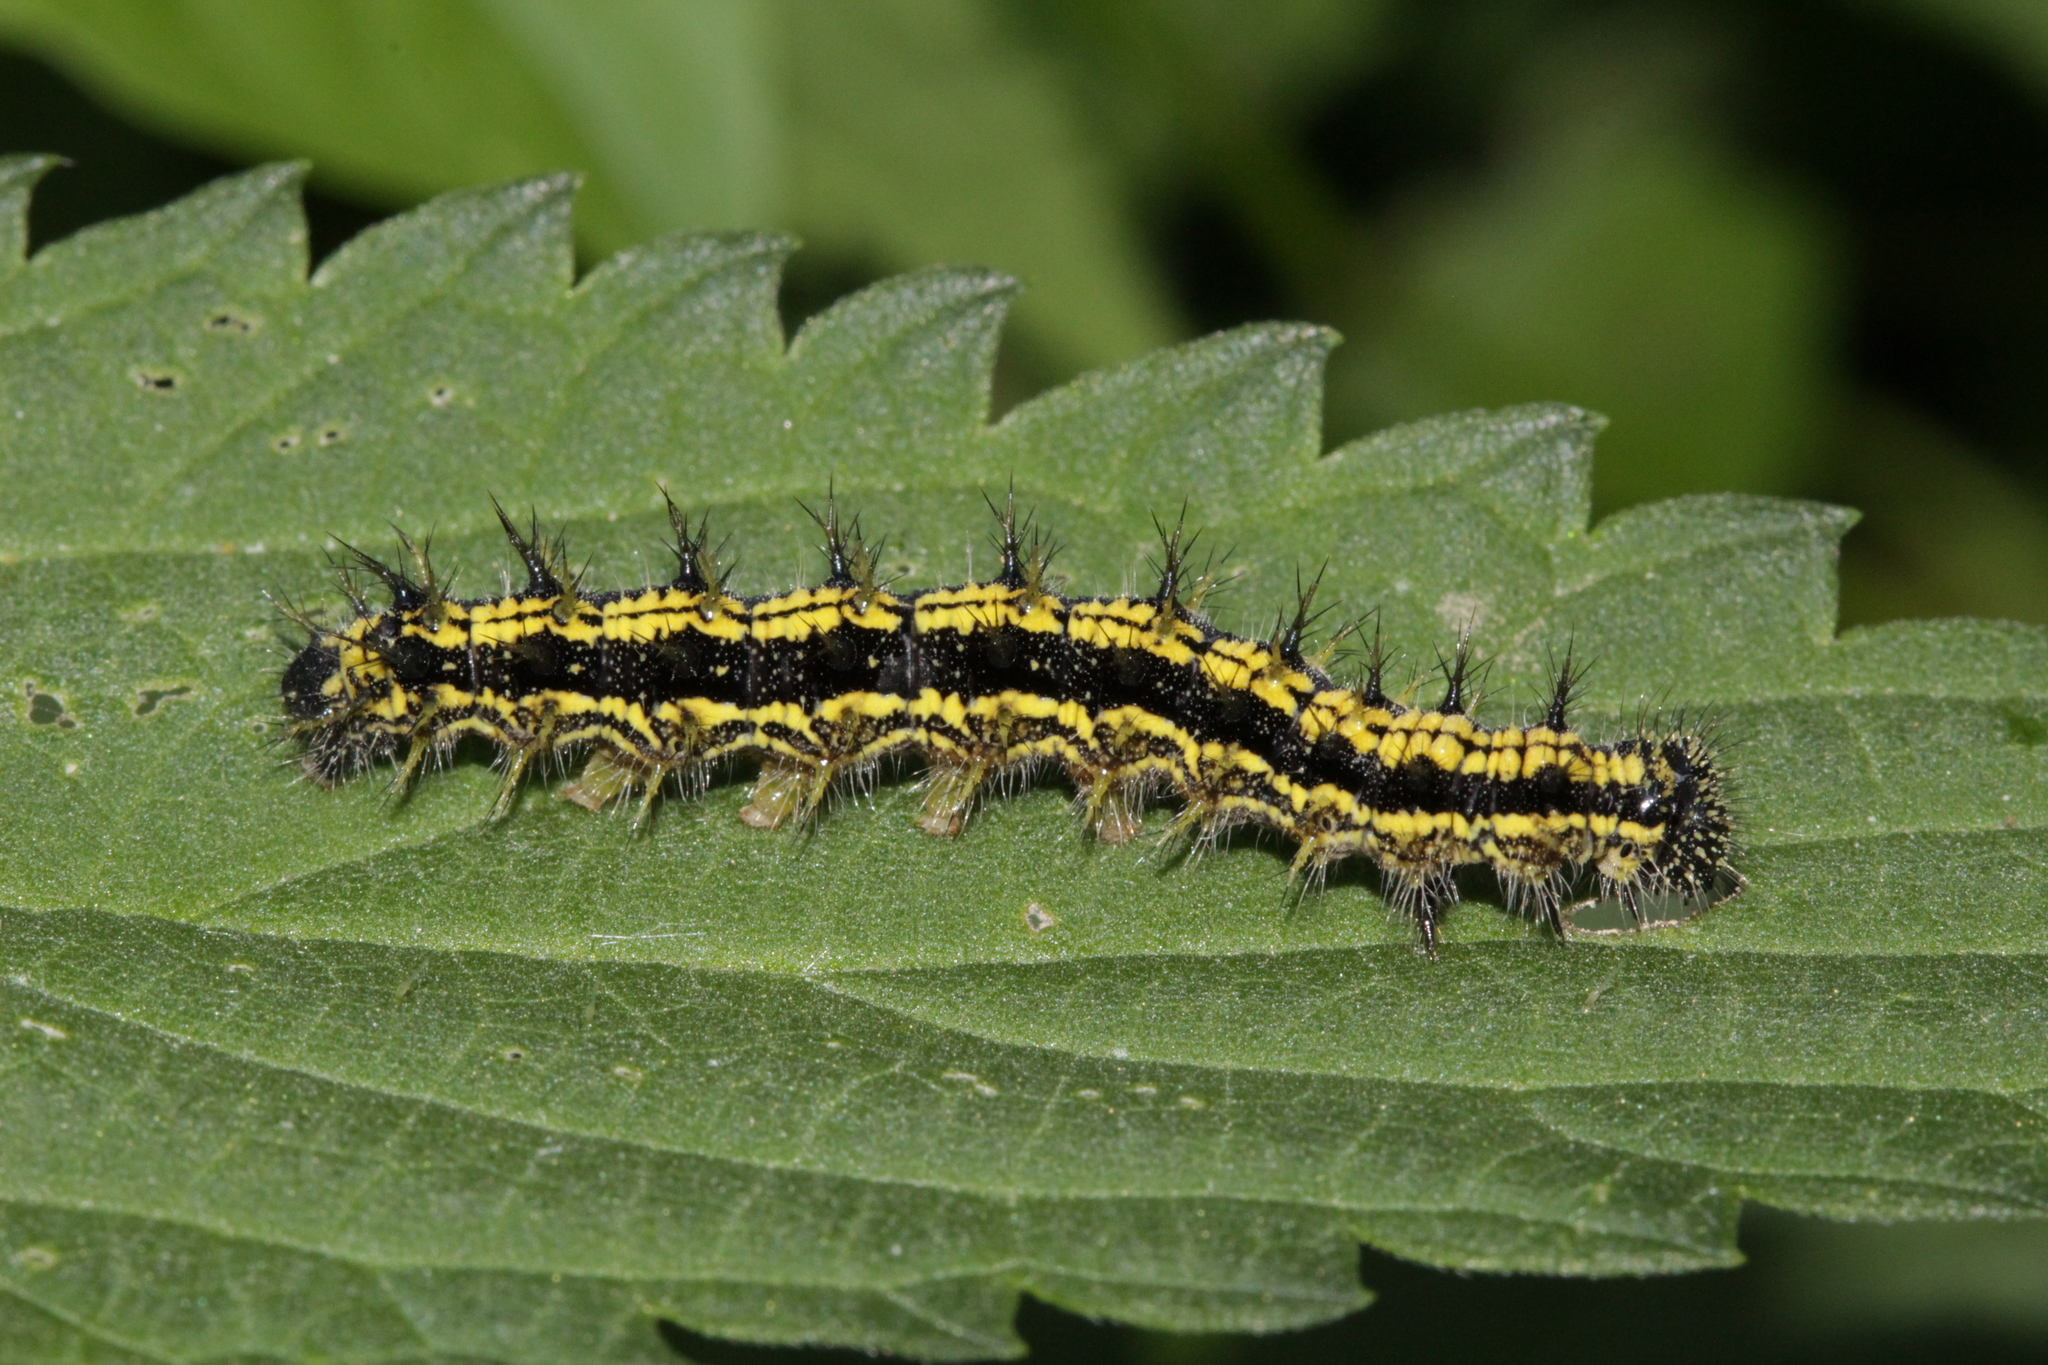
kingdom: Animalia
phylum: Arthropoda
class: Insecta
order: Lepidoptera
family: Nymphalidae
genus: Aglais
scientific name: Aglais urticae
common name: Small tortoiseshell
